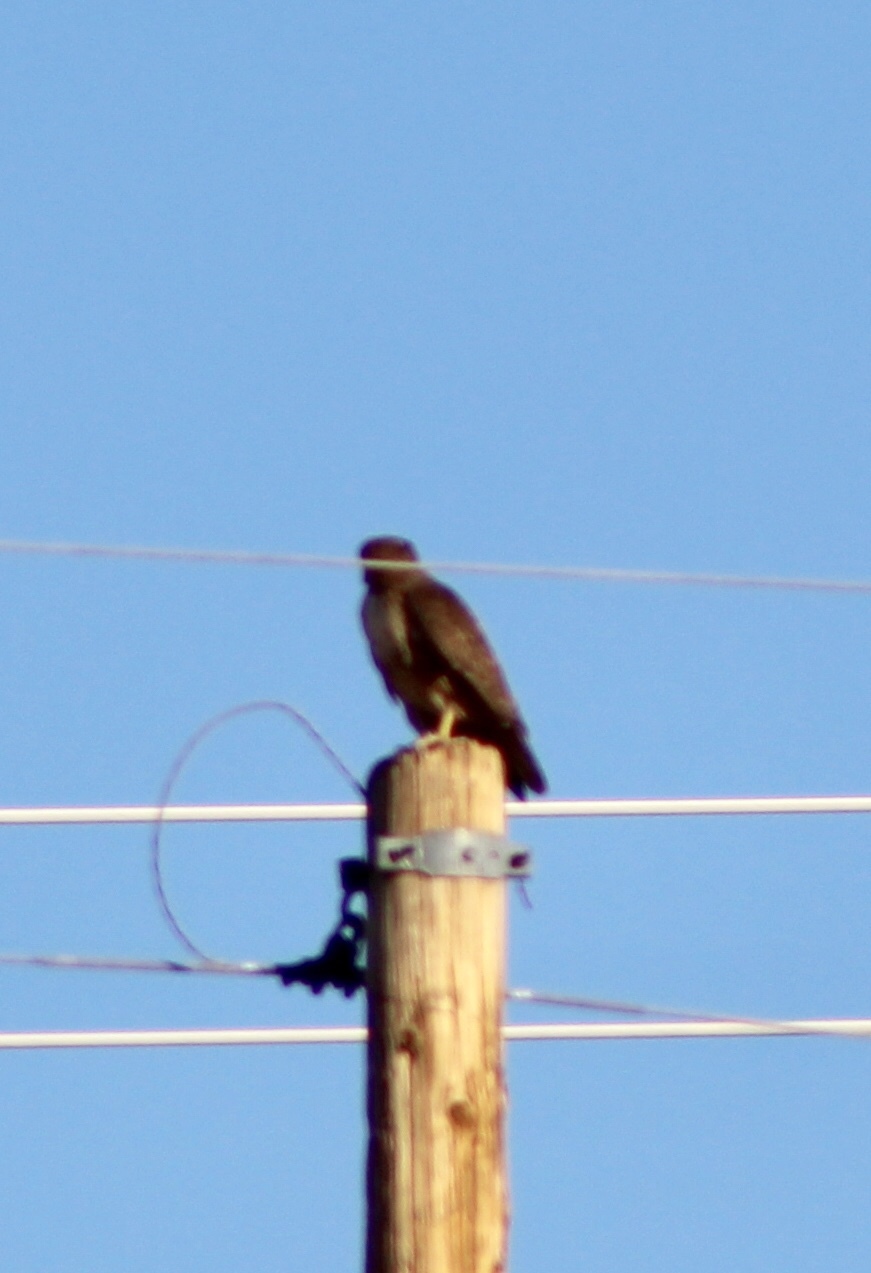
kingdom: Animalia
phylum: Chordata
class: Aves
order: Accipitriformes
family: Accipitridae
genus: Buteo
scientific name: Buteo jamaicensis
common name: Red-tailed hawk
